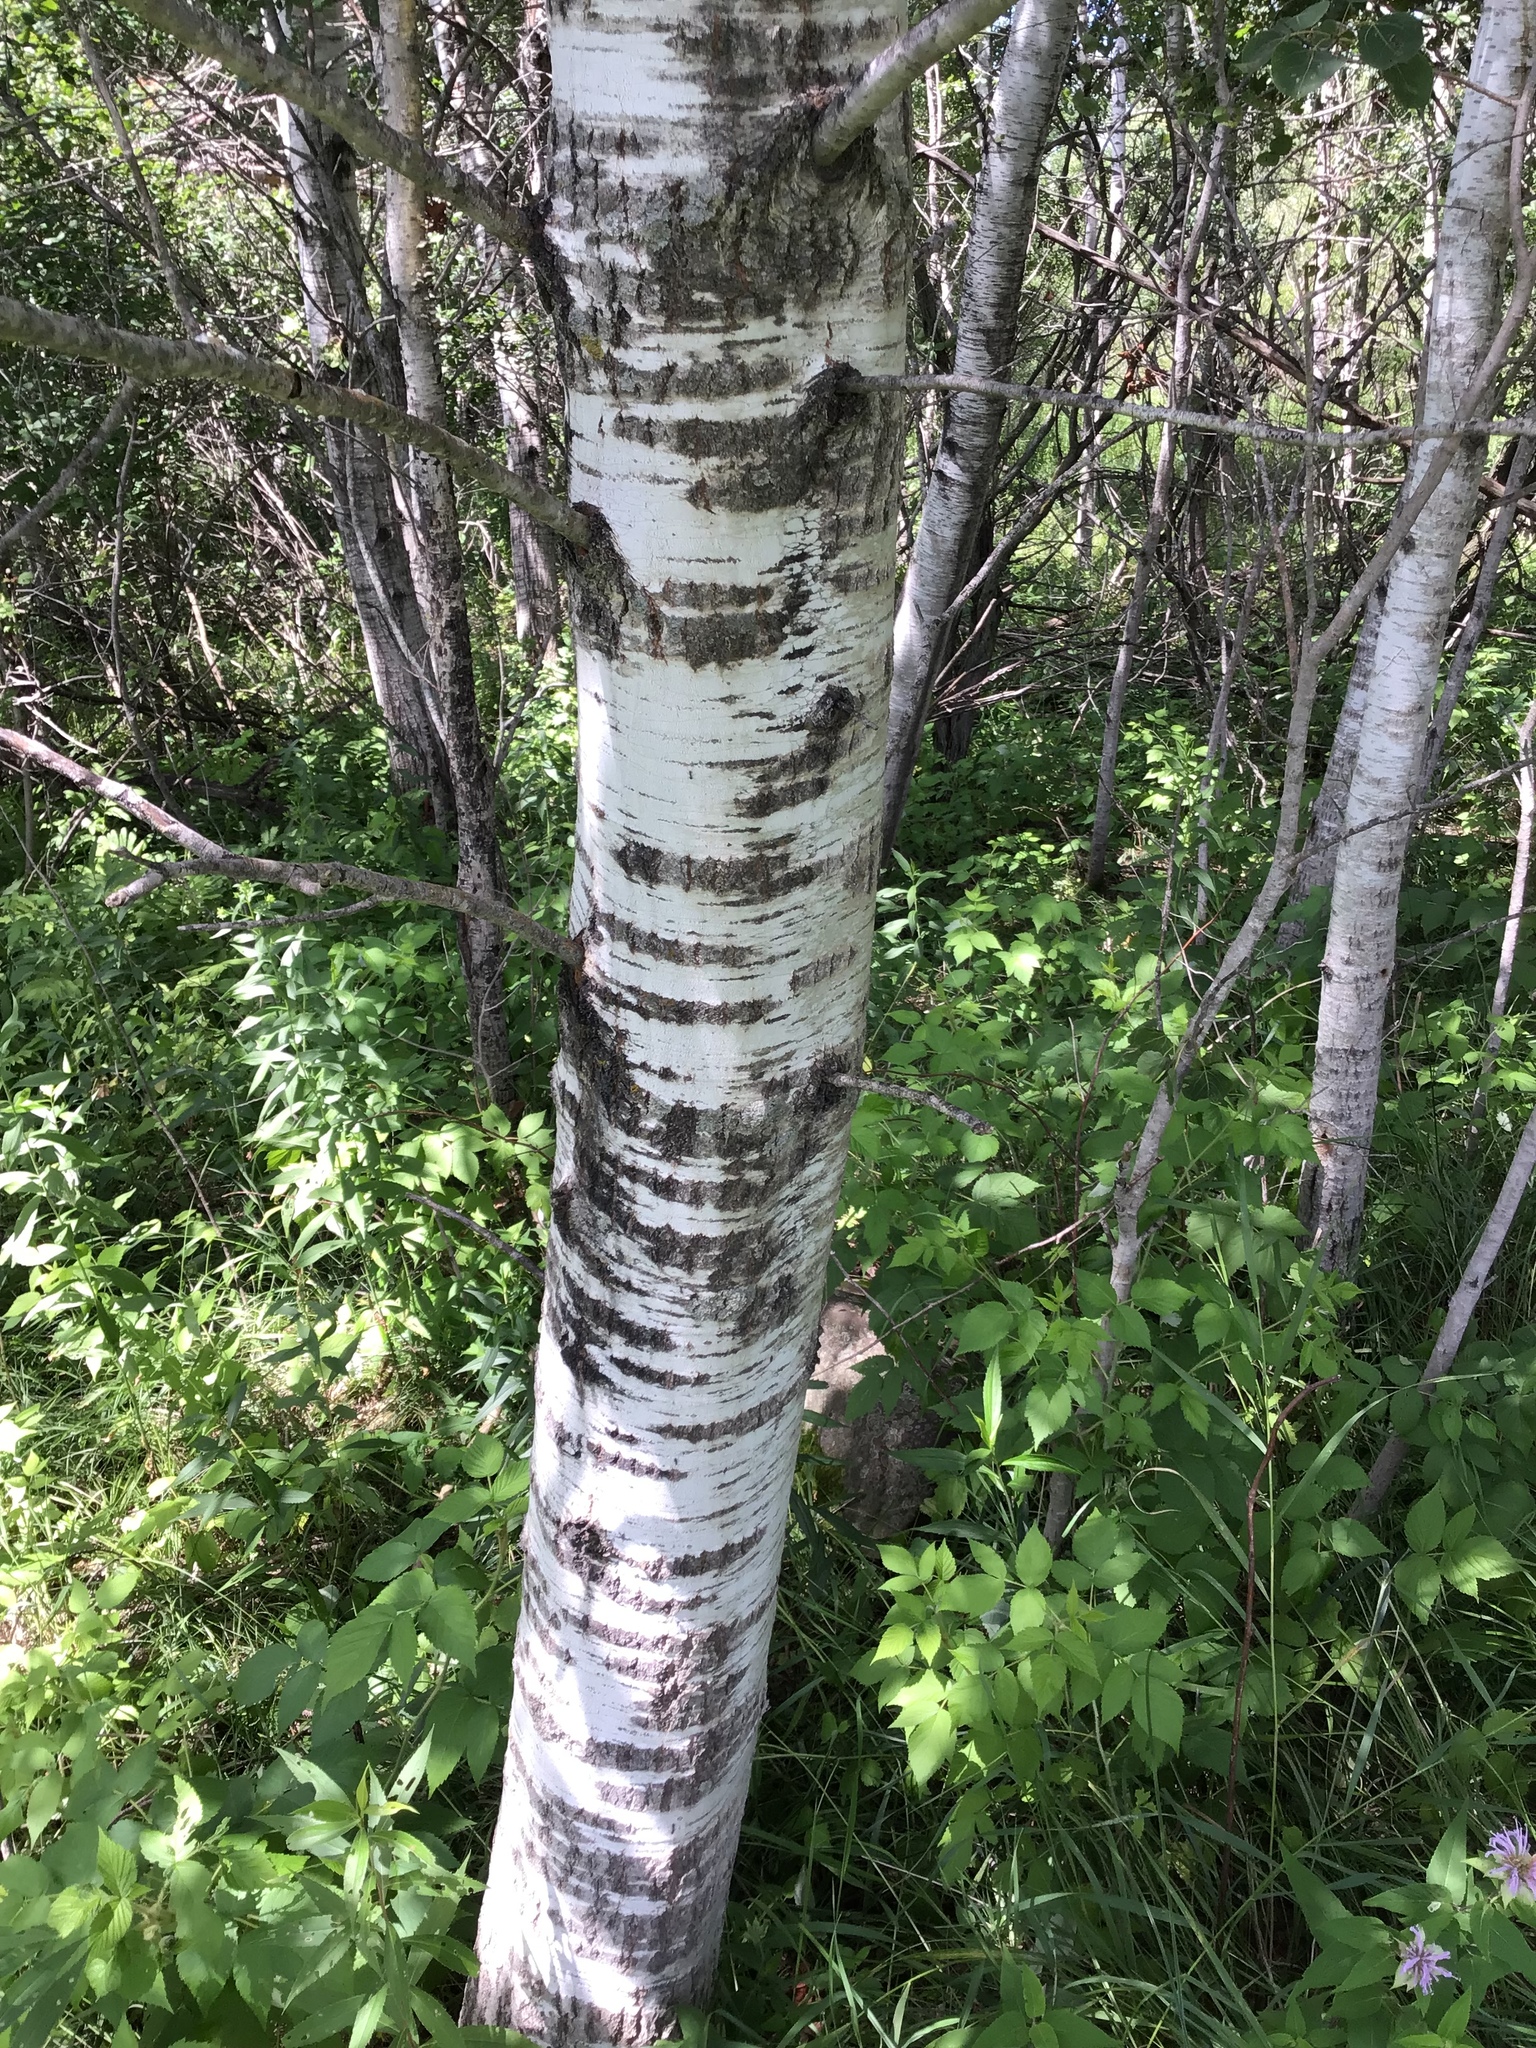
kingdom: Plantae
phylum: Tracheophyta
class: Magnoliopsida
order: Malpighiales
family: Salicaceae
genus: Populus
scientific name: Populus tremuloides
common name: Quaking aspen
